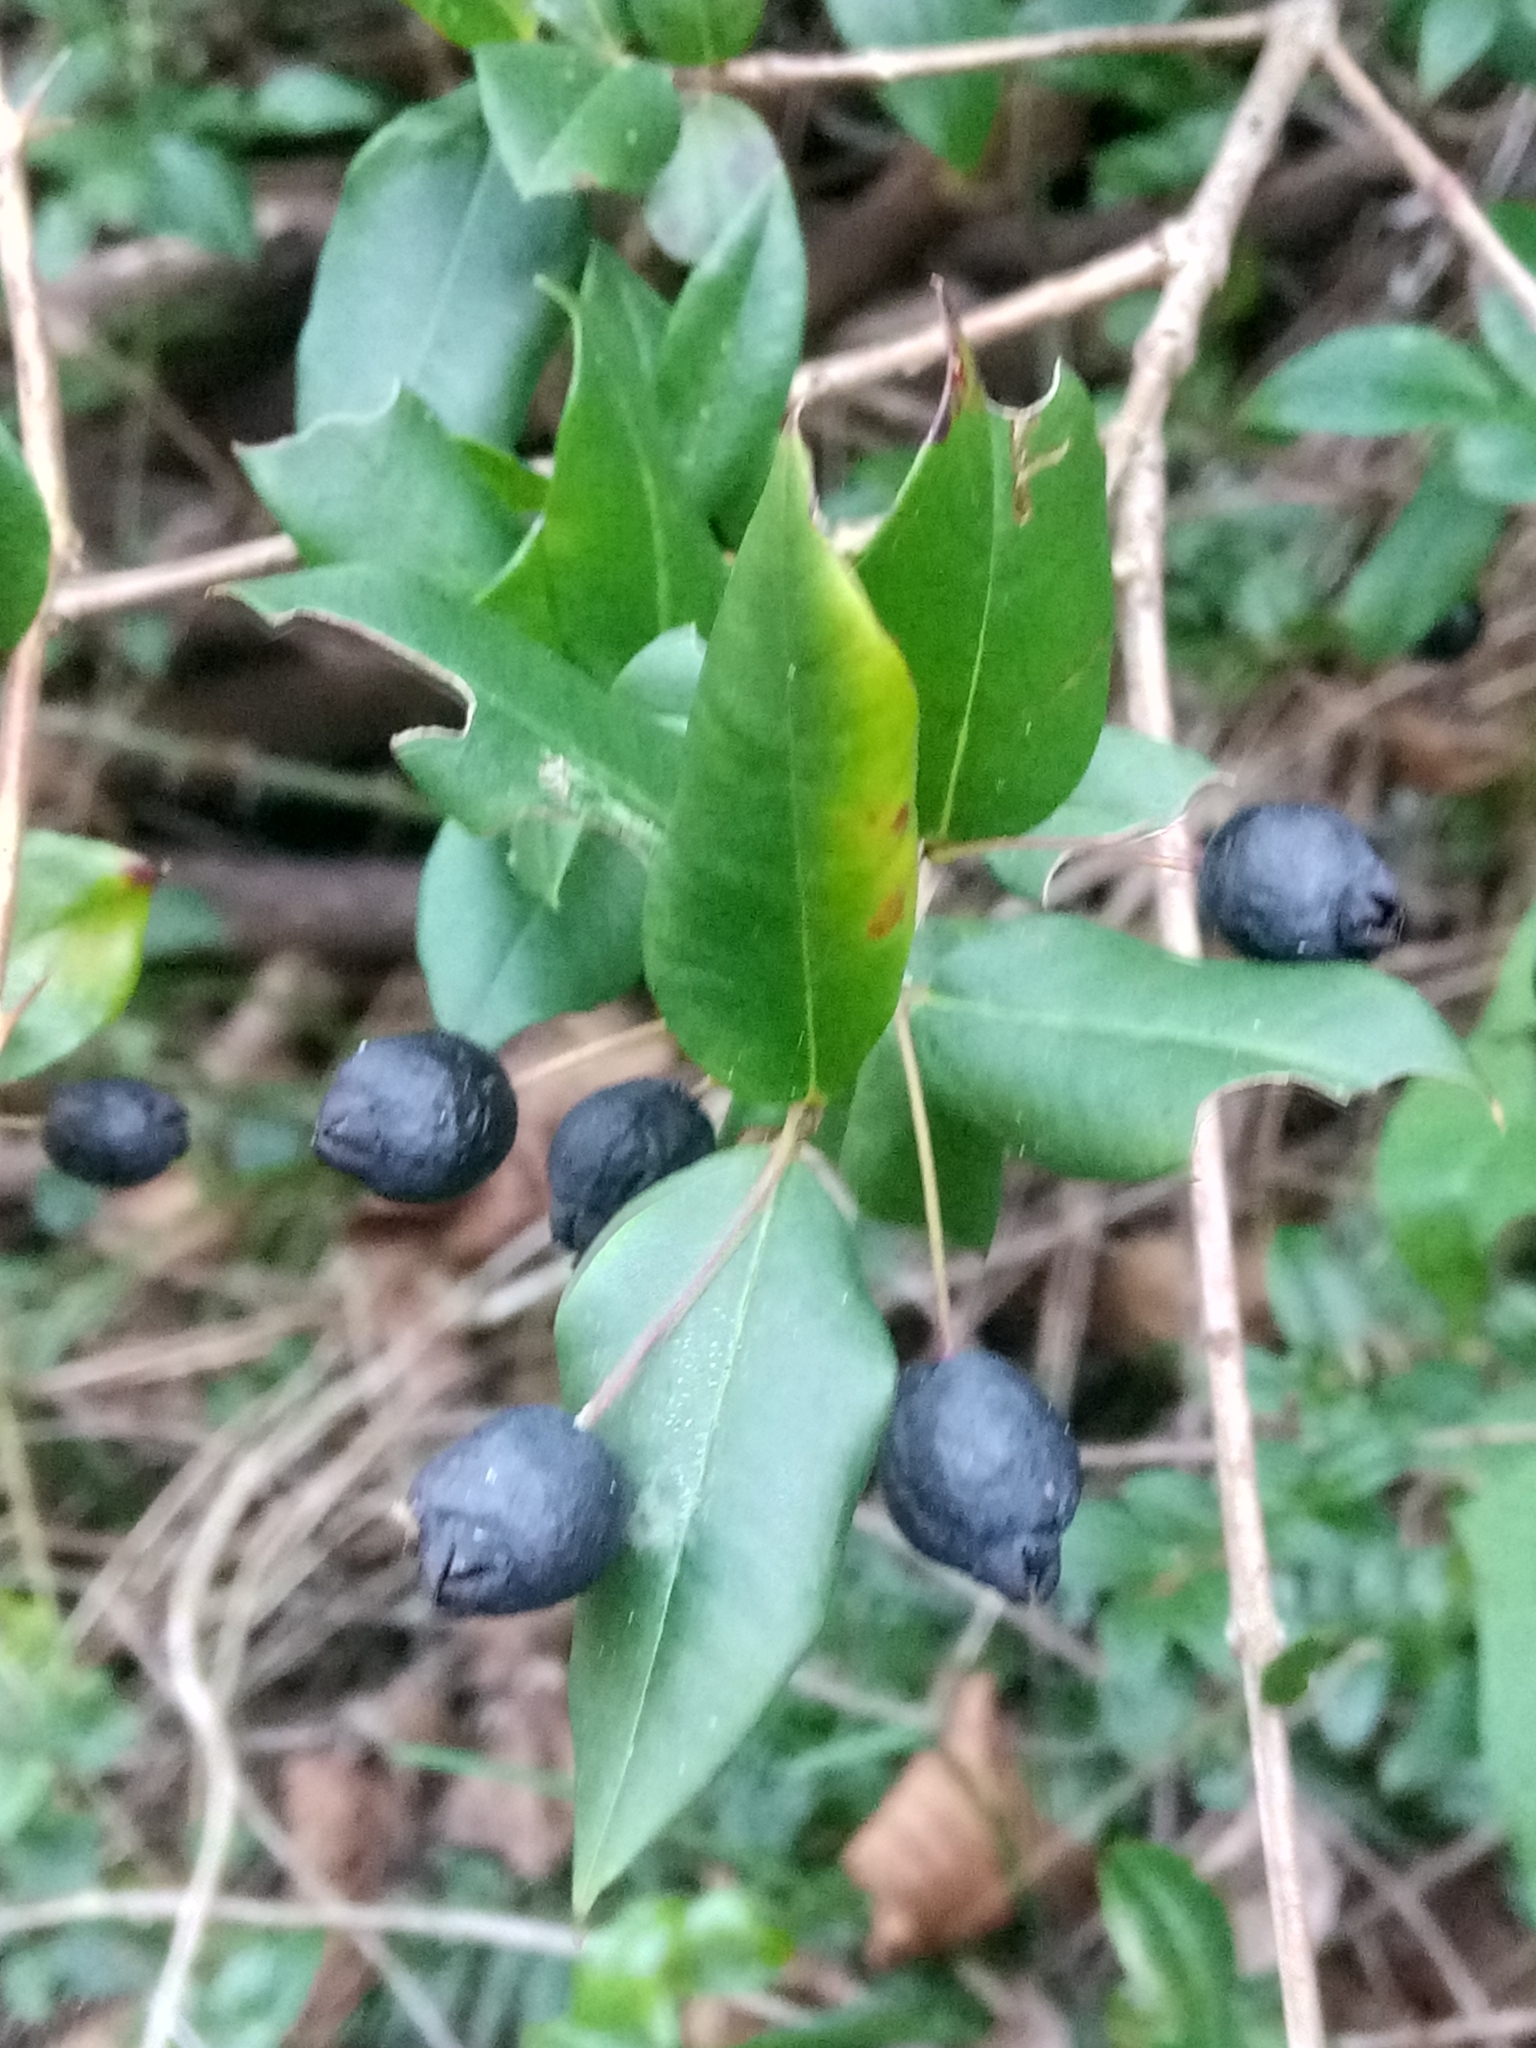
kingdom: Plantae
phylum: Tracheophyta
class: Magnoliopsida
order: Myrtales
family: Myrtaceae
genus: Myrtus
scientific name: Myrtus communis
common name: Myrtle
